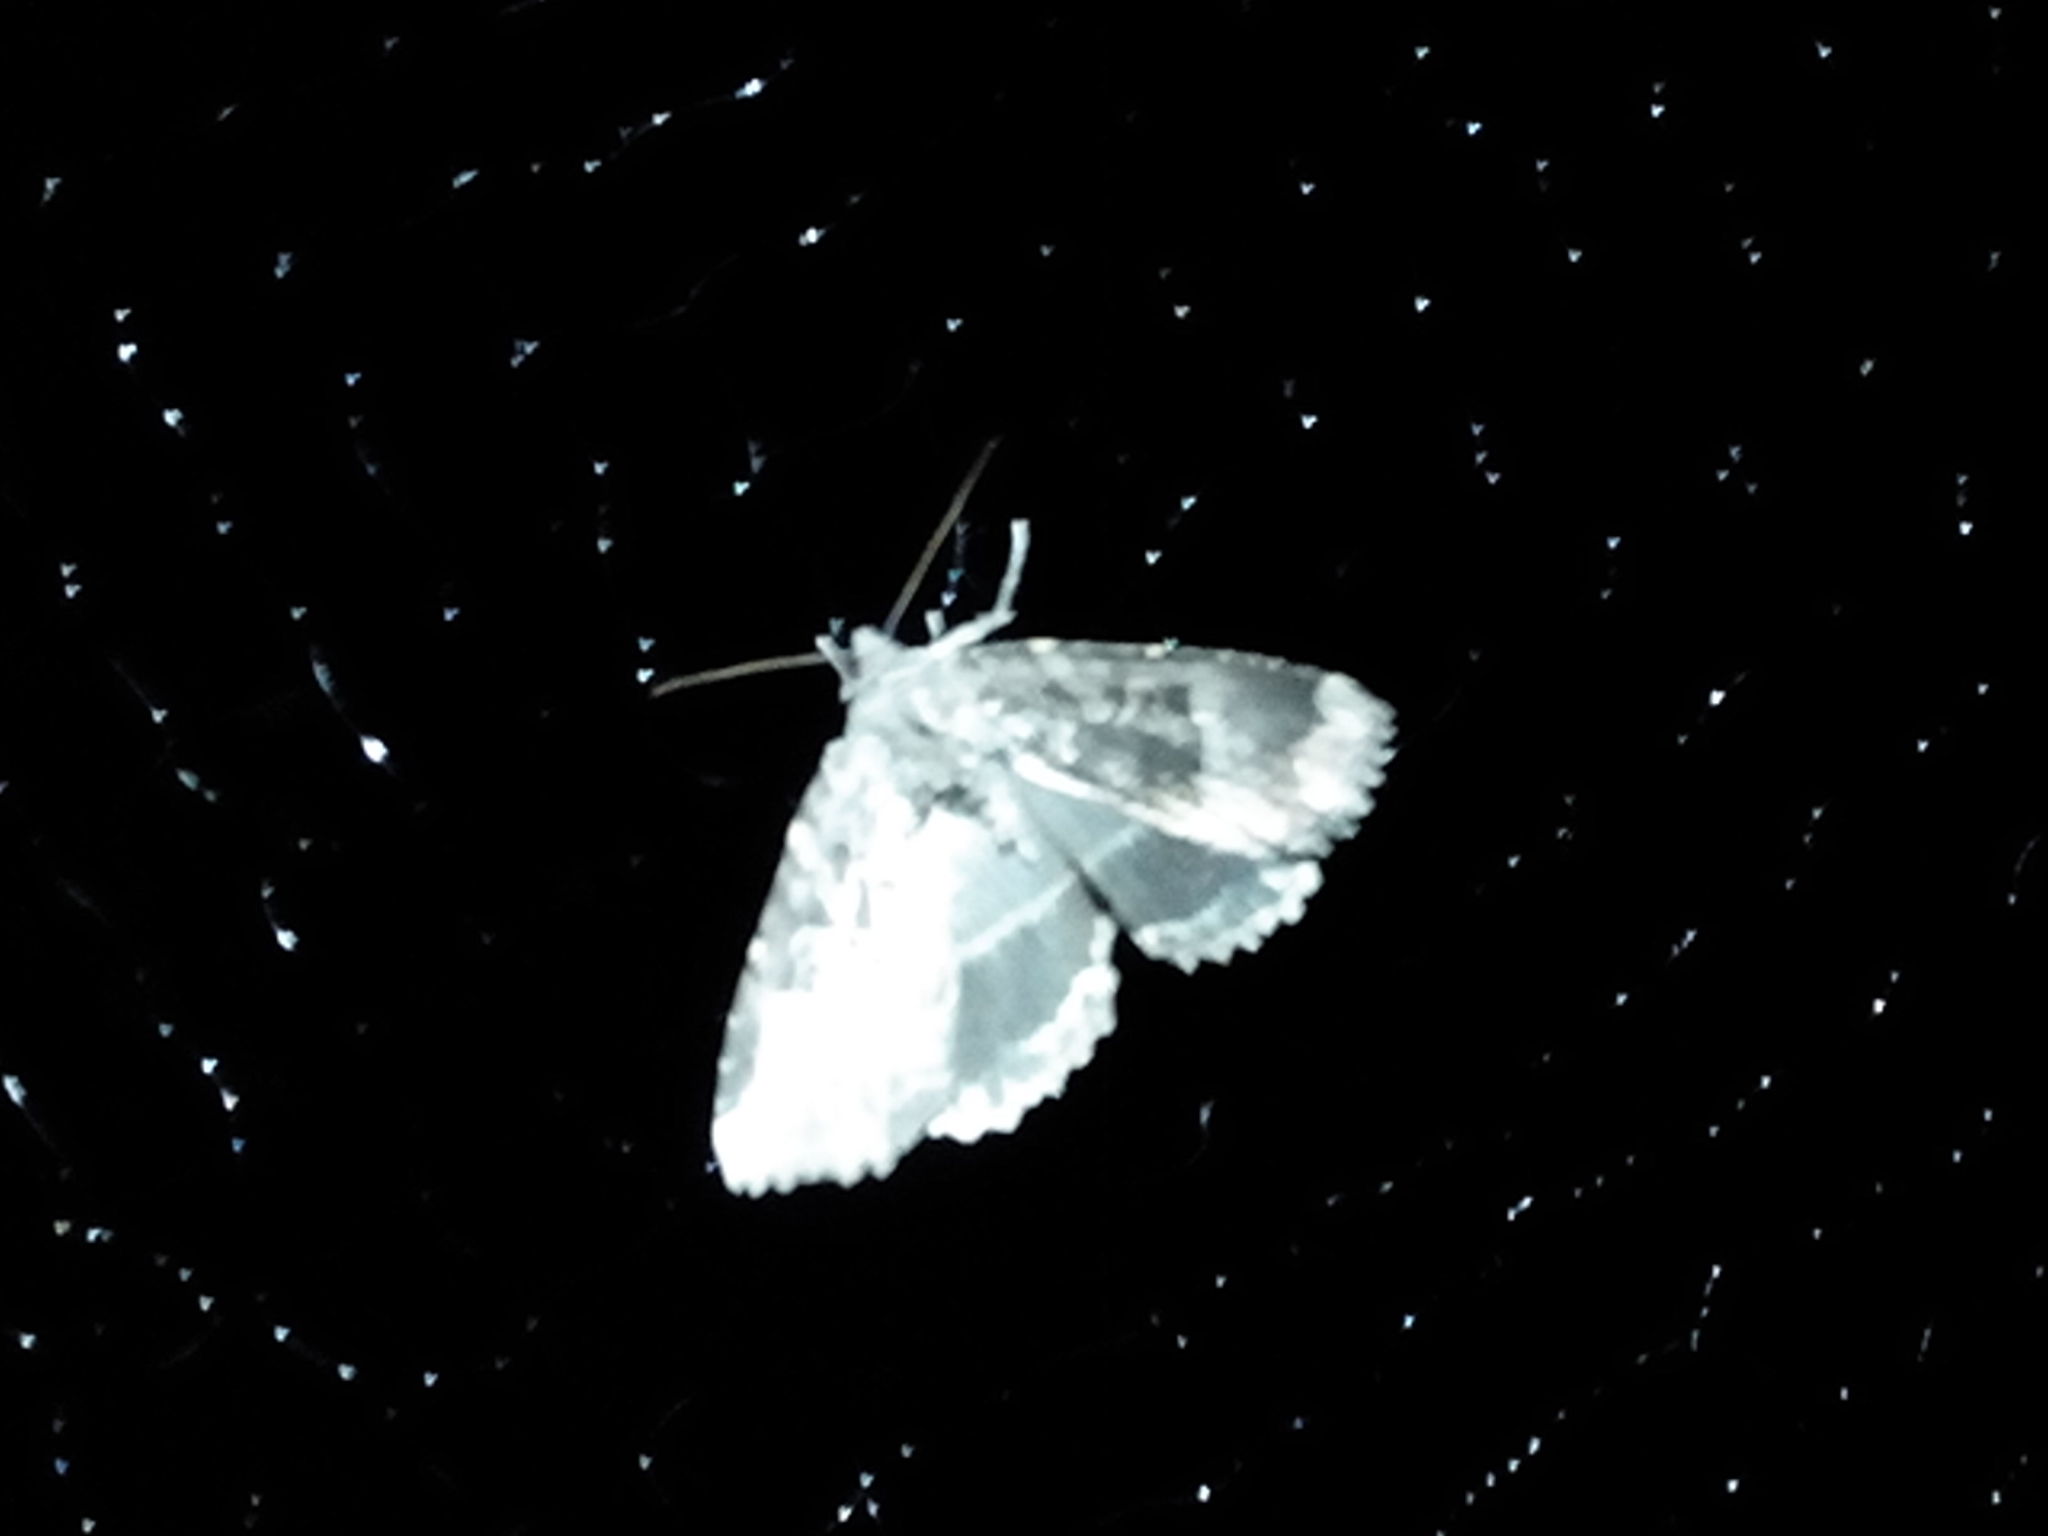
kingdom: Animalia
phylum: Arthropoda
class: Insecta
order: Lepidoptera
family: Noctuidae
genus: Mormo
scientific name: Mormo maura
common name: Old lady
